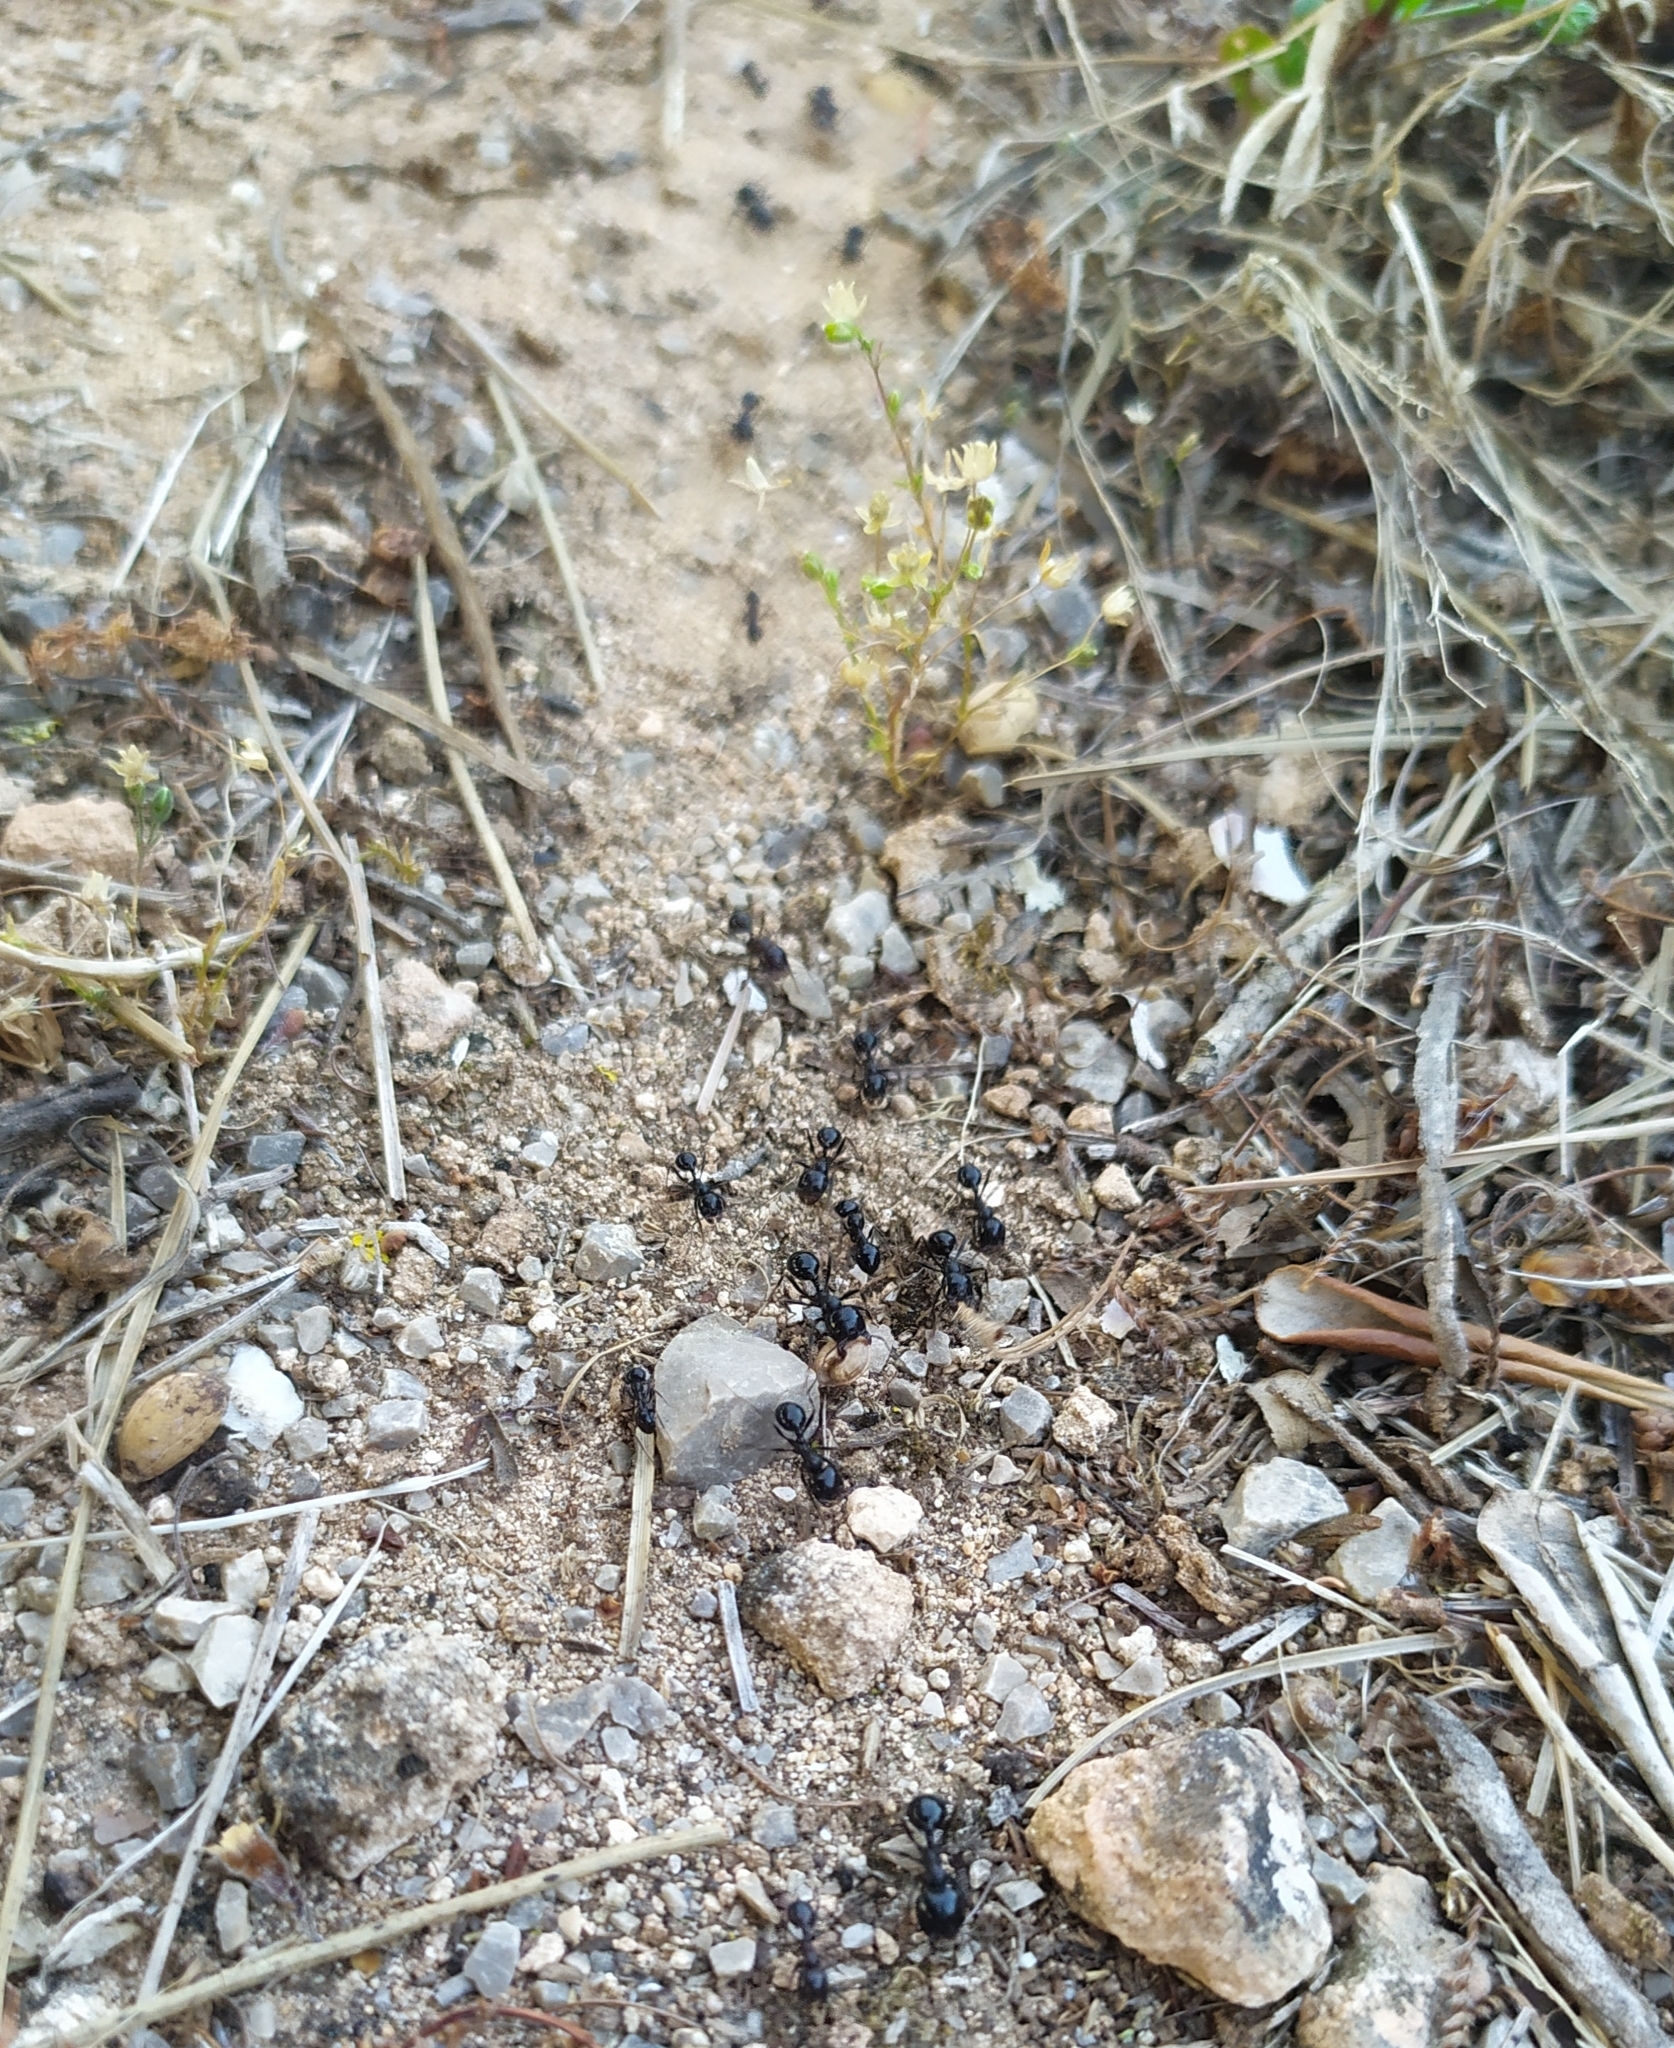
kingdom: Animalia
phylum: Arthropoda
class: Insecta
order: Hymenoptera
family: Formicidae
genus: Messor
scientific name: Messor bouvieri
